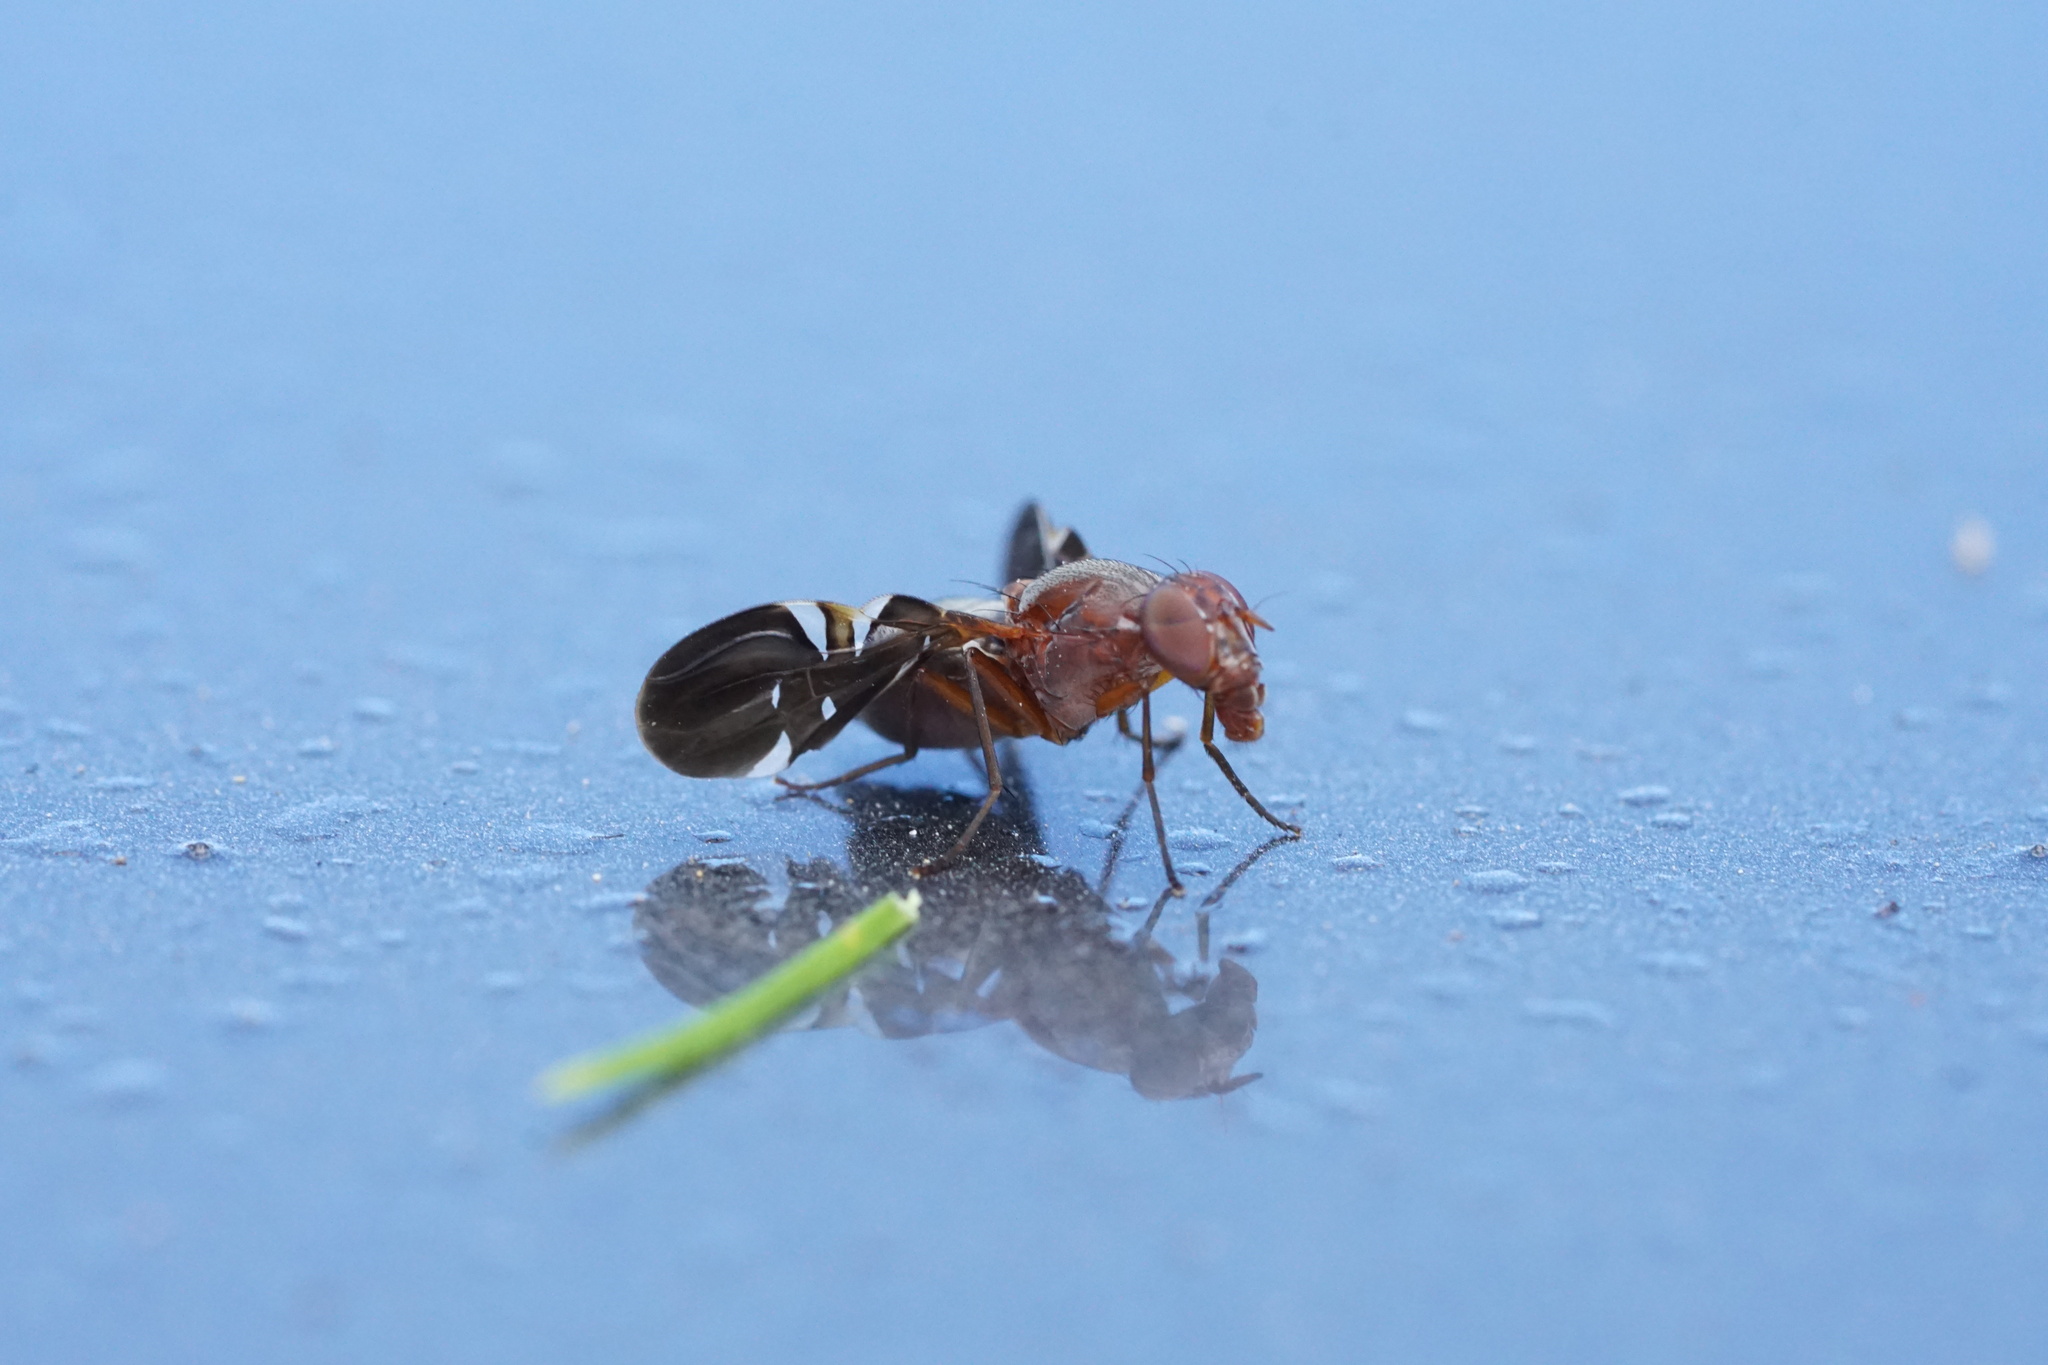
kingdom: Animalia
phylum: Arthropoda
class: Insecta
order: Diptera
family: Ulidiidae
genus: Delphinia
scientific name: Delphinia picta
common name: Common picture-winged fly
